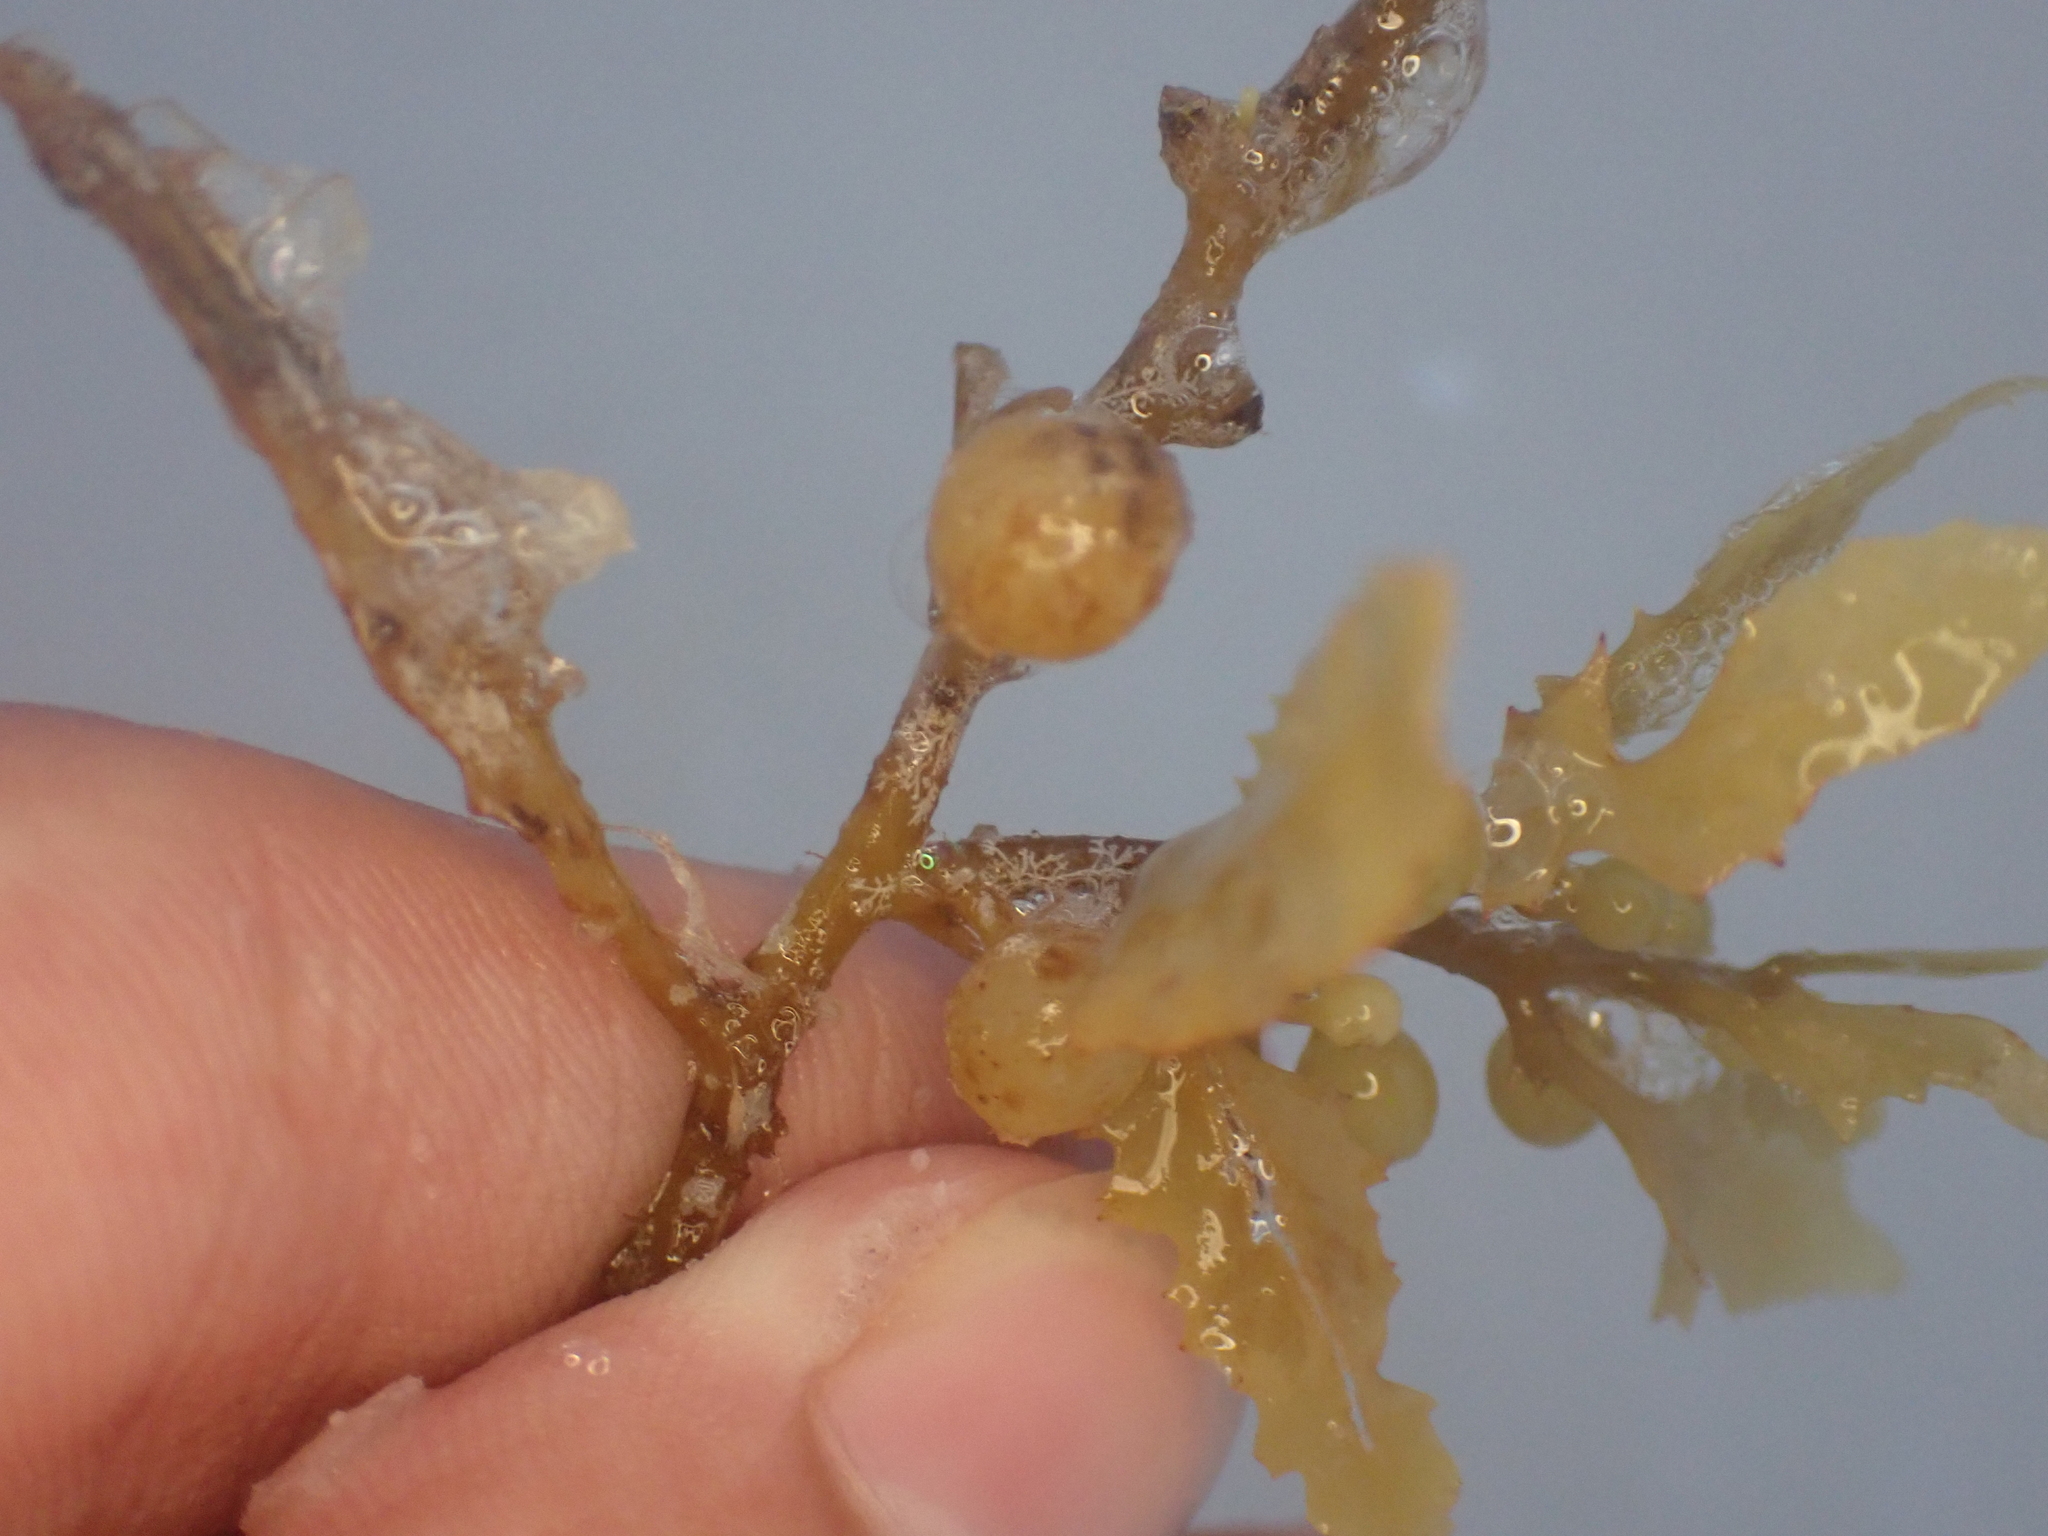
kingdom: Chromista
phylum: Ochrophyta
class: Phaeophyceae
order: Fucales
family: Sargassaceae
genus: Sargassum
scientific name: Sargassum fluitans
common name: Sargassum seaweed
